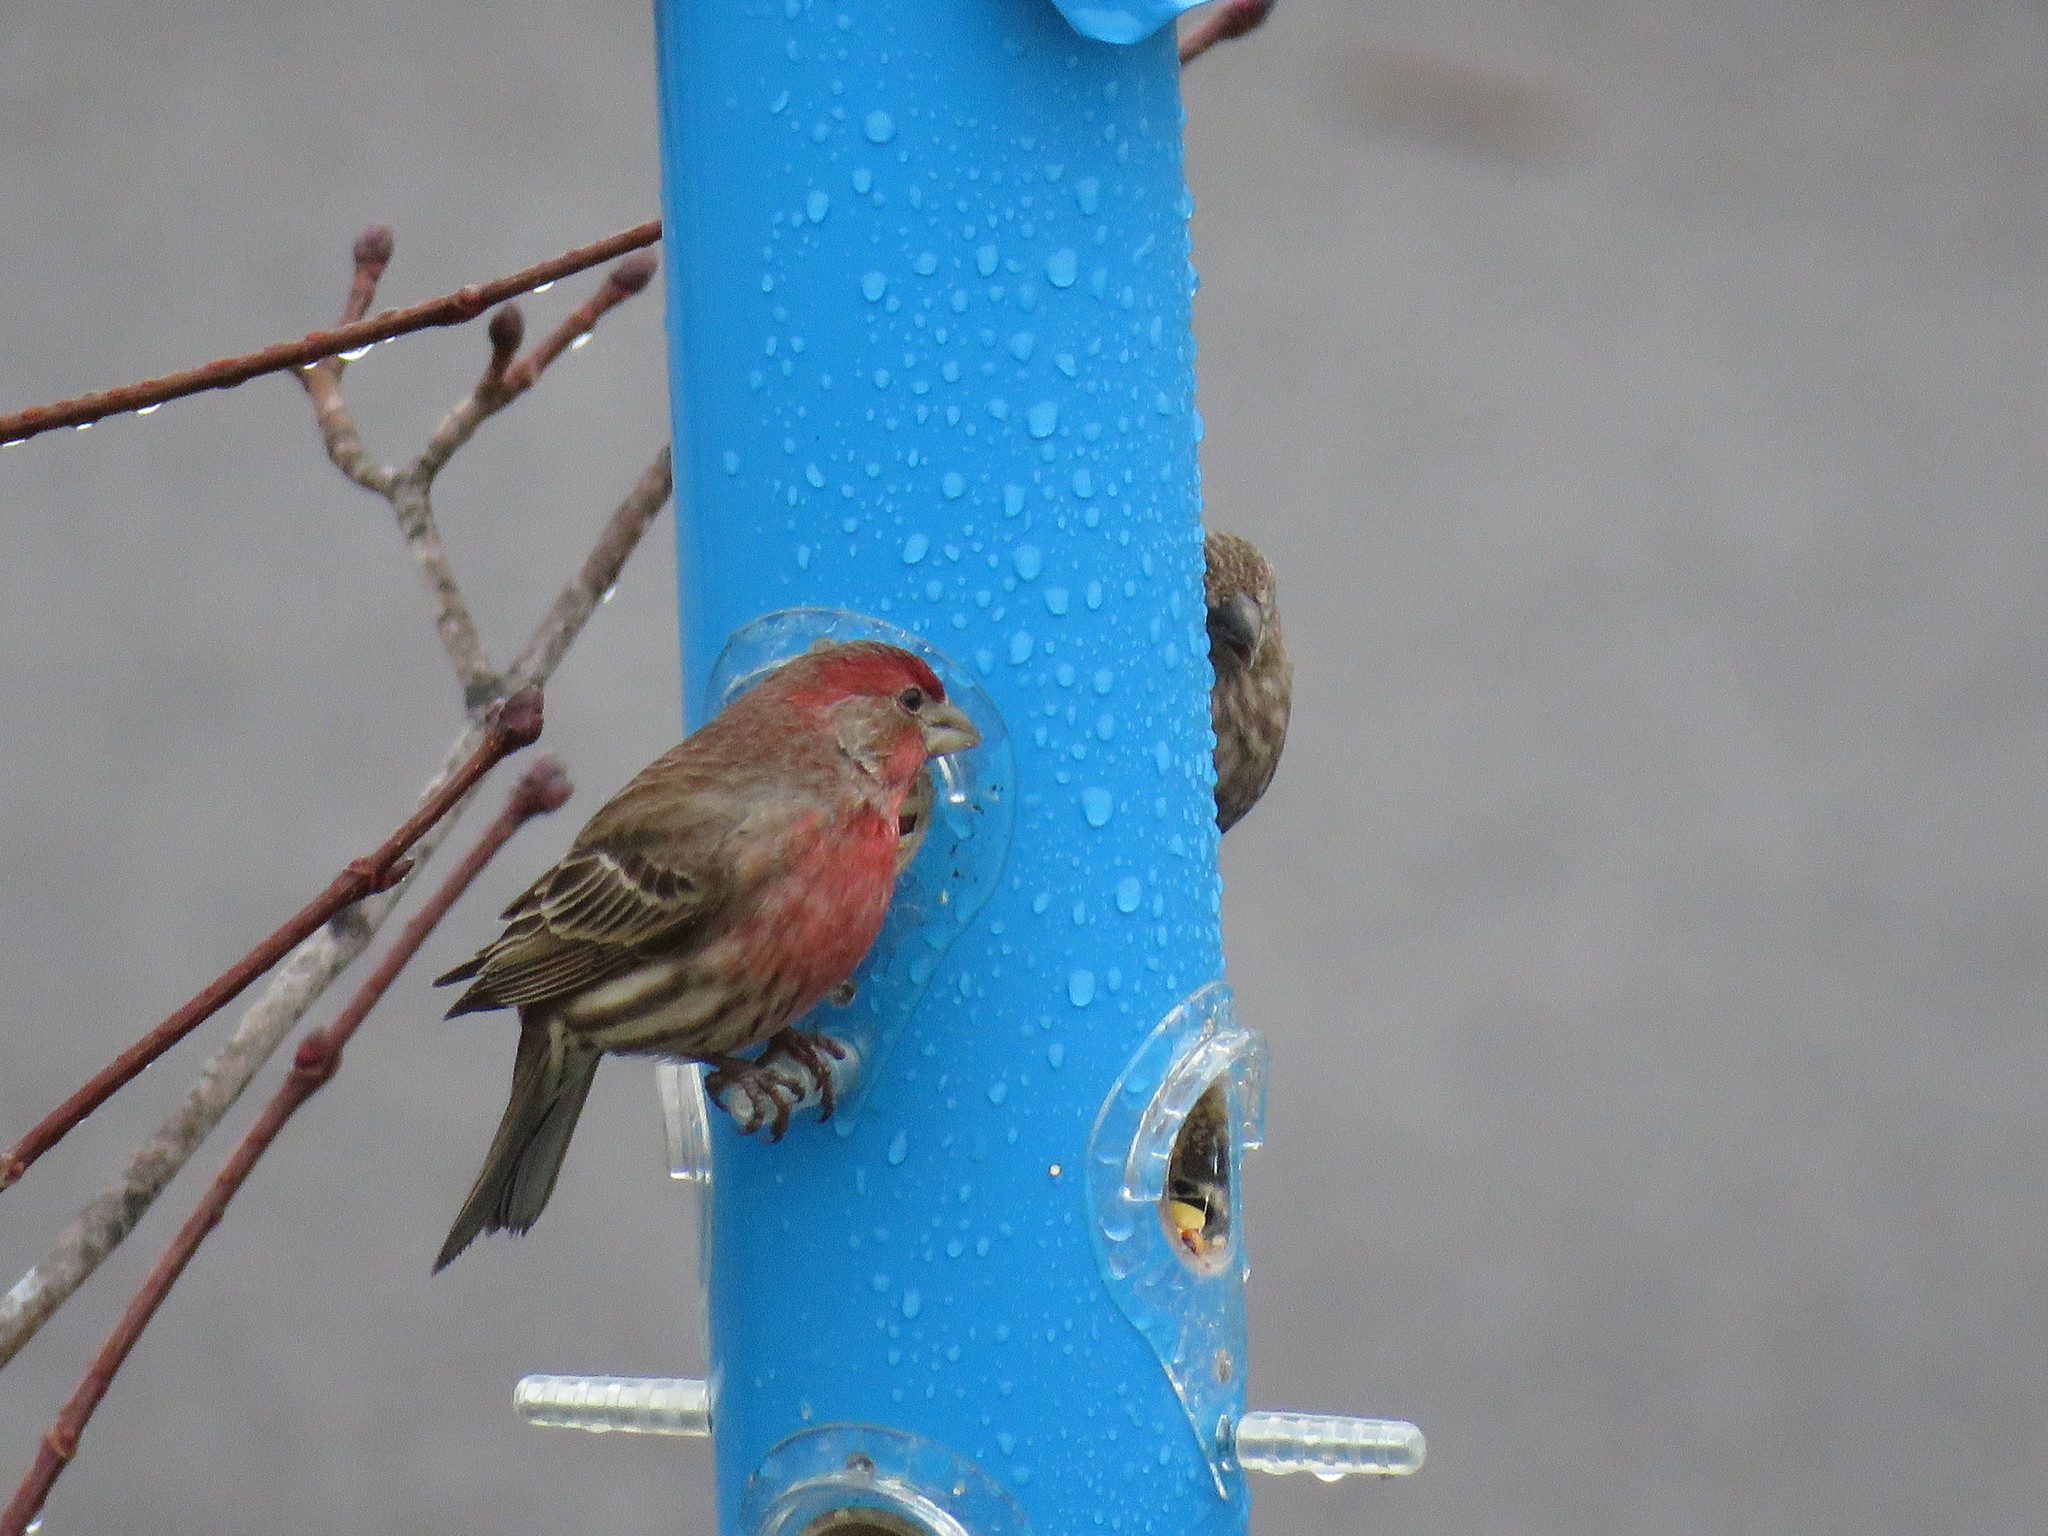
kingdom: Animalia
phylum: Chordata
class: Aves
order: Passeriformes
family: Fringillidae
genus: Haemorhous
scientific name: Haemorhous mexicanus
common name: House finch
